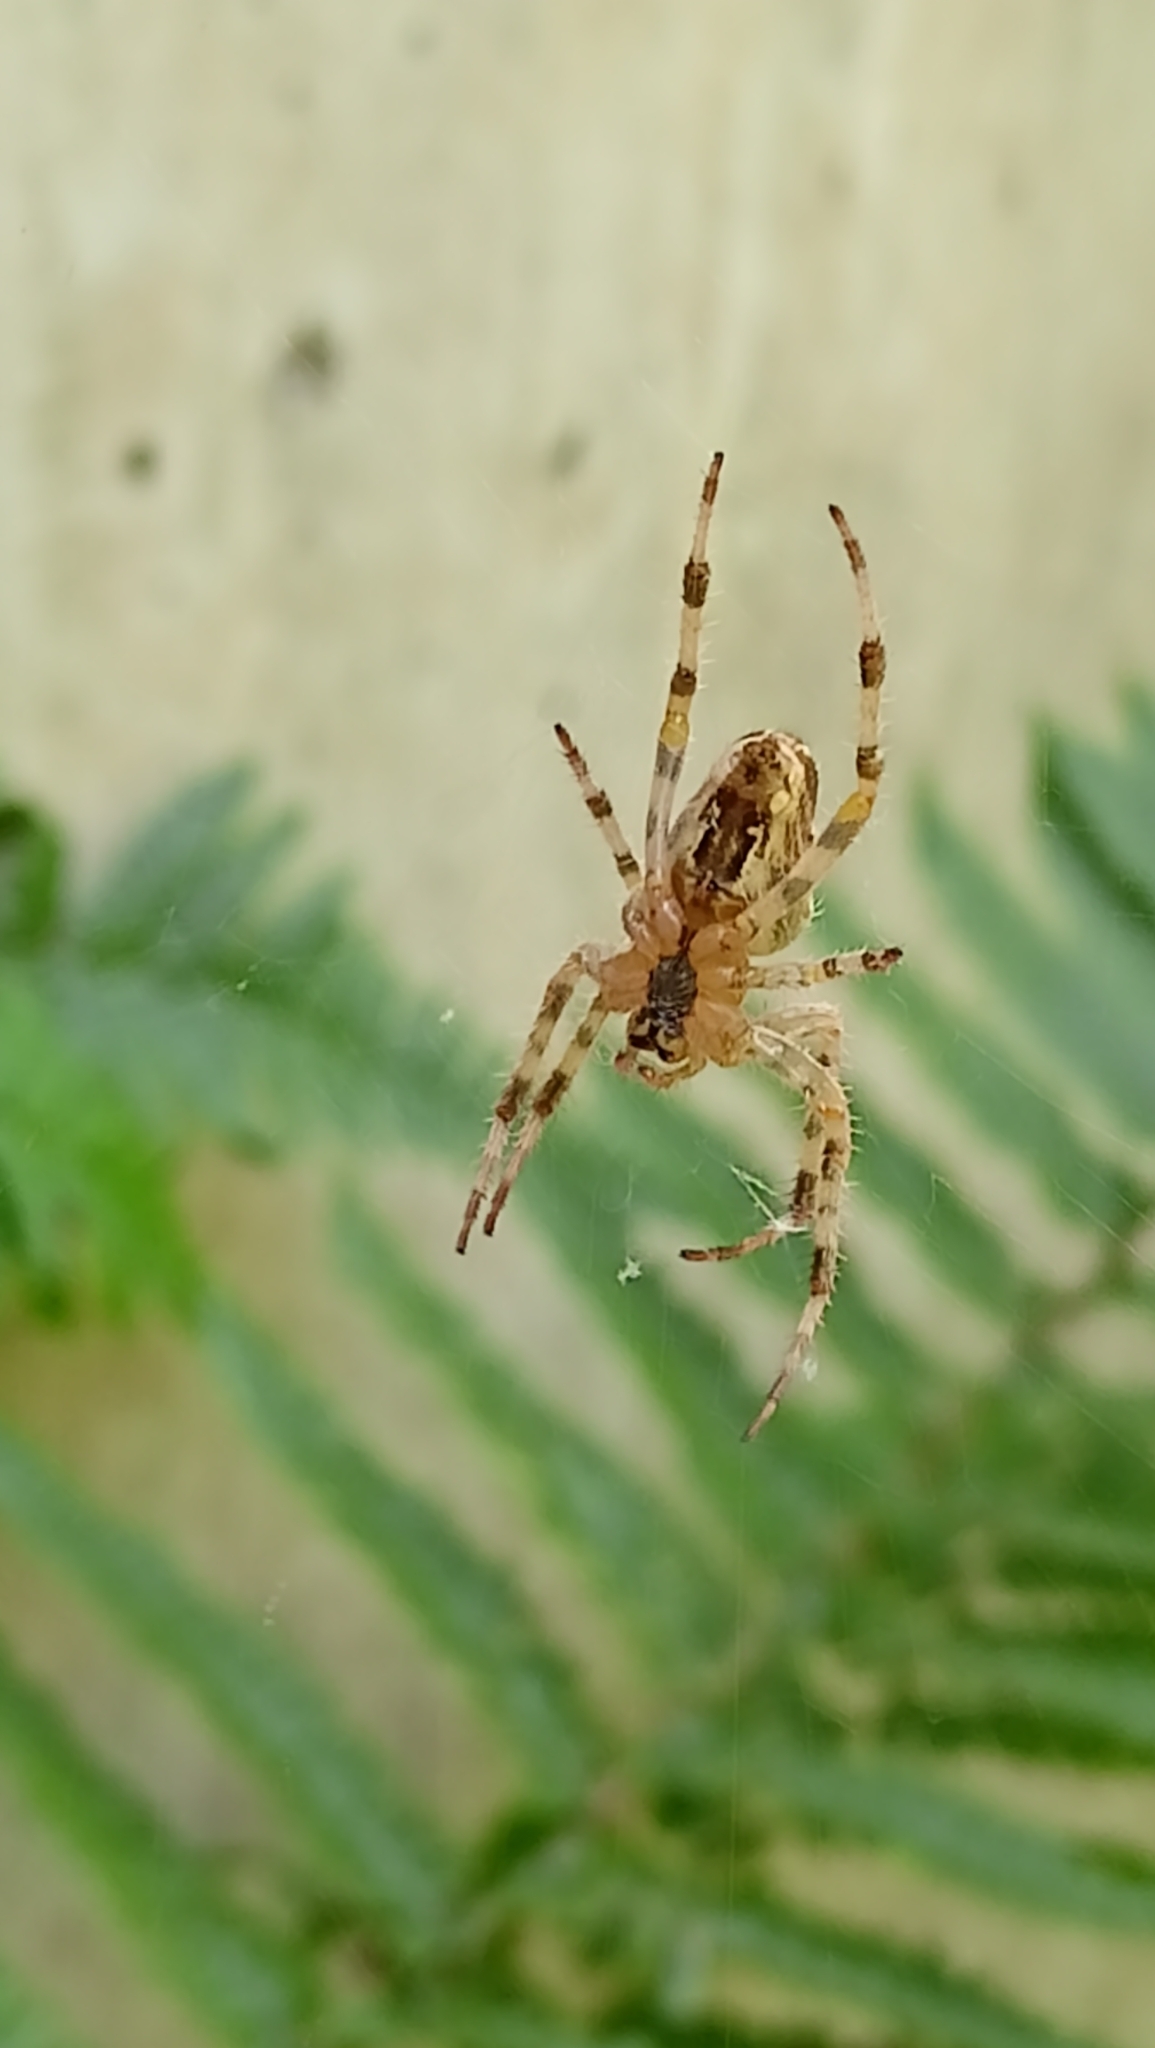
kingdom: Animalia
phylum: Arthropoda
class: Arachnida
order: Araneae
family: Araneidae
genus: Araneus
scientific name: Araneus diadematus
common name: Cross orbweaver
